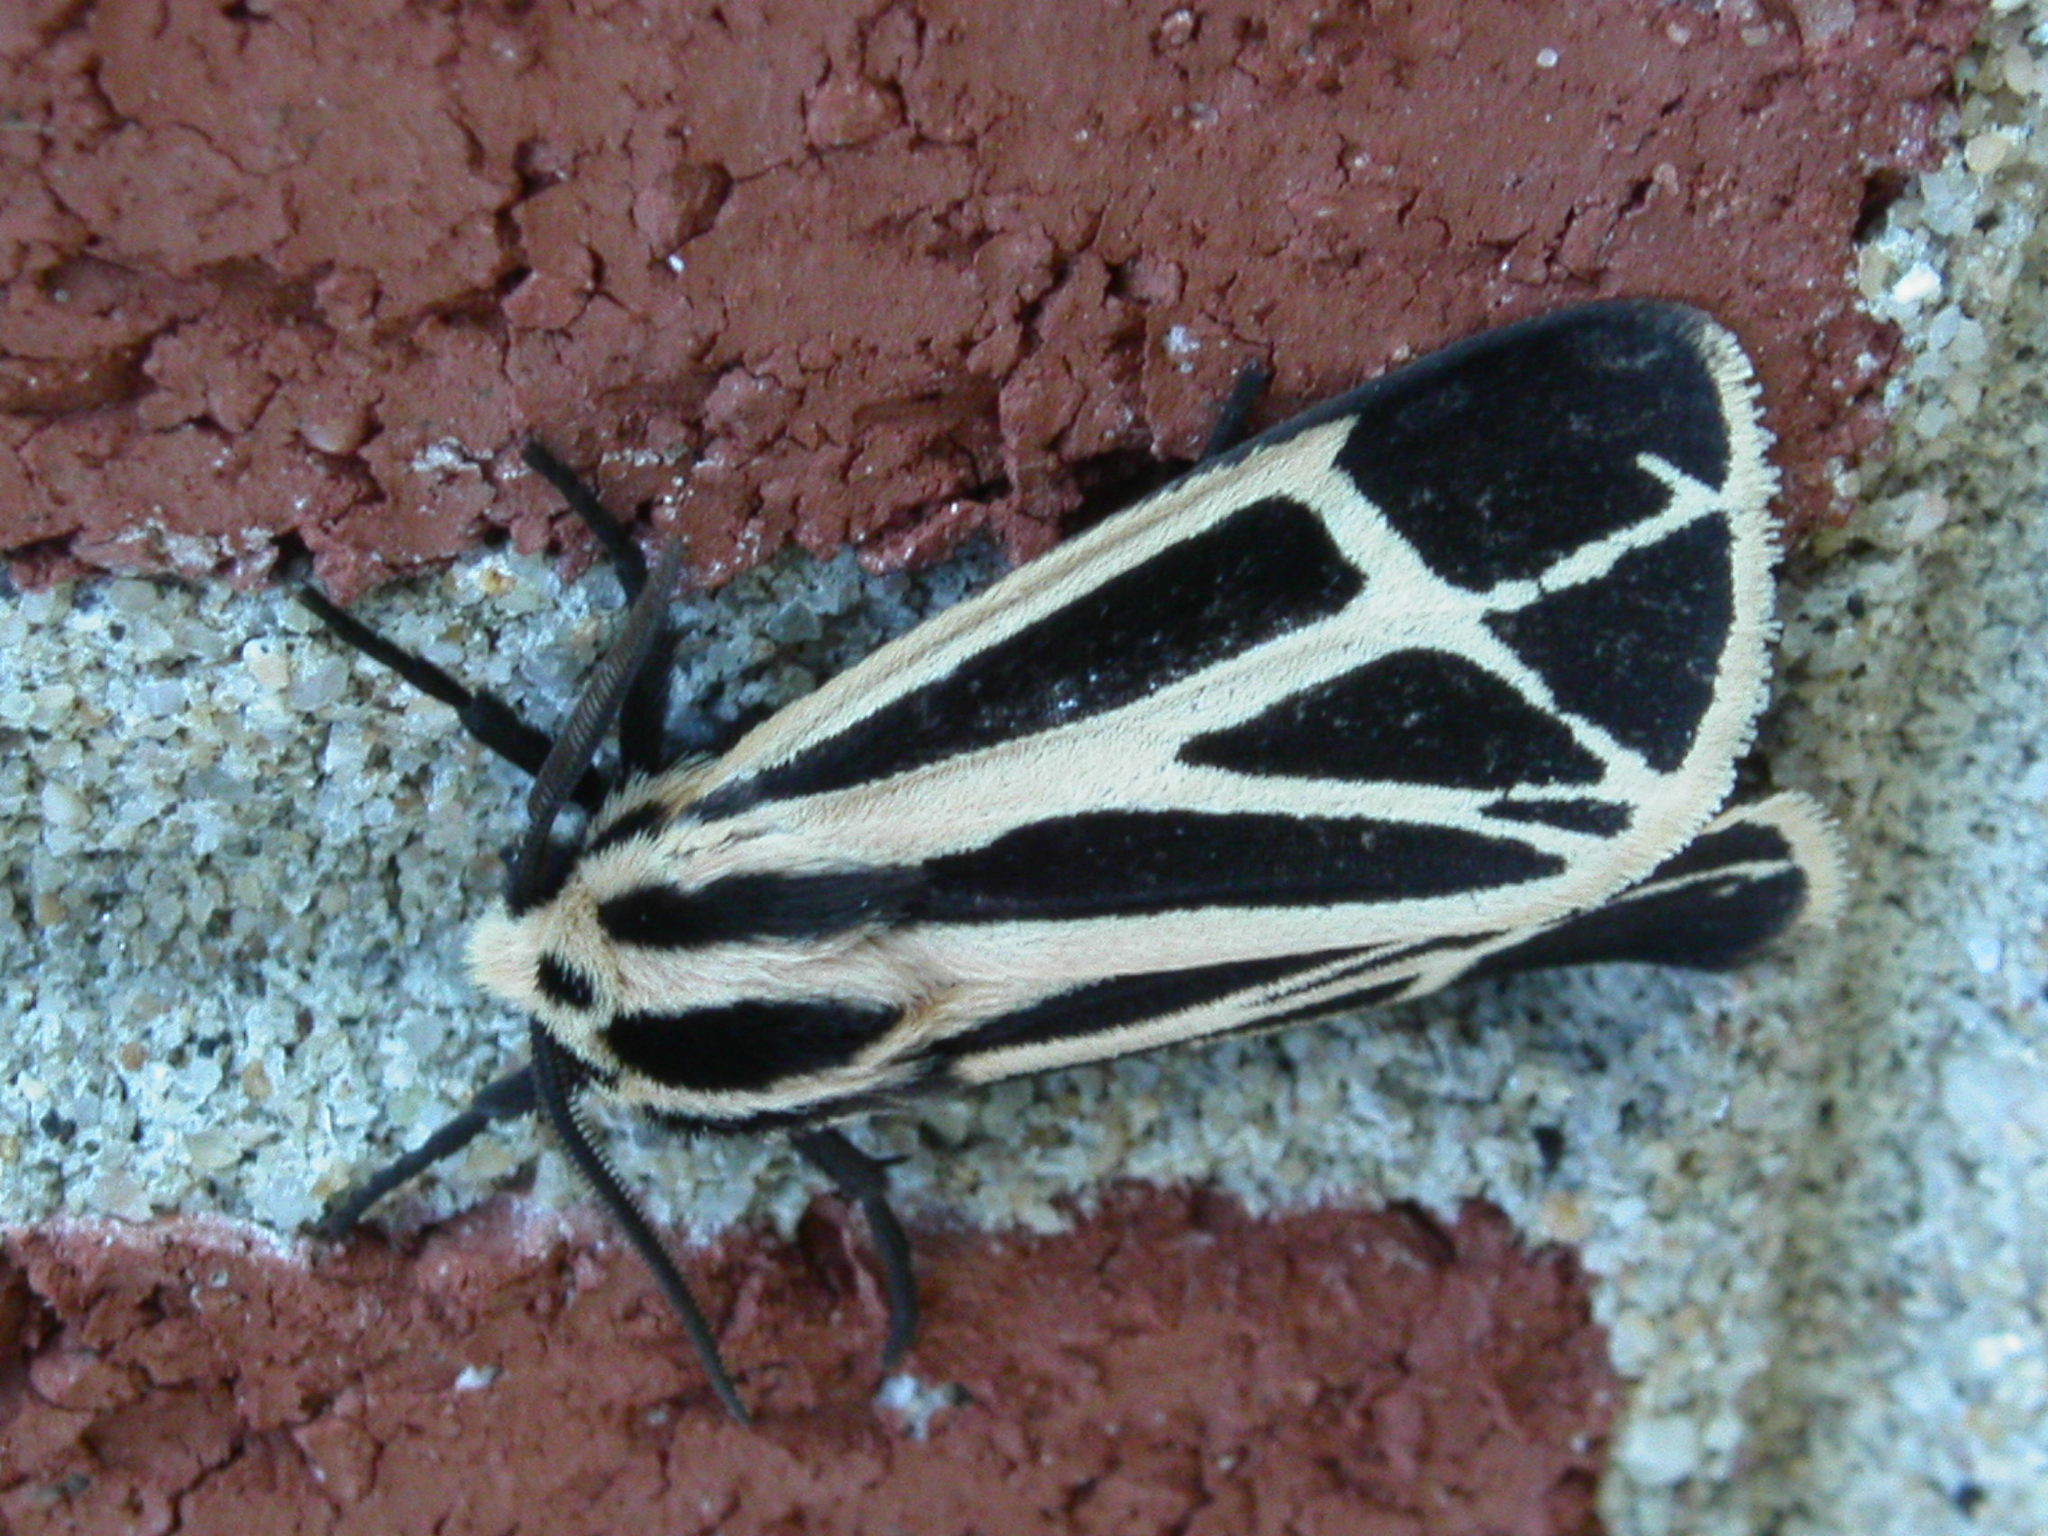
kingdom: Animalia
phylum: Arthropoda
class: Insecta
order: Lepidoptera
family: Erebidae
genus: Apantesis
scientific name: Apantesis phalerata
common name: Harnessed tiger moth
